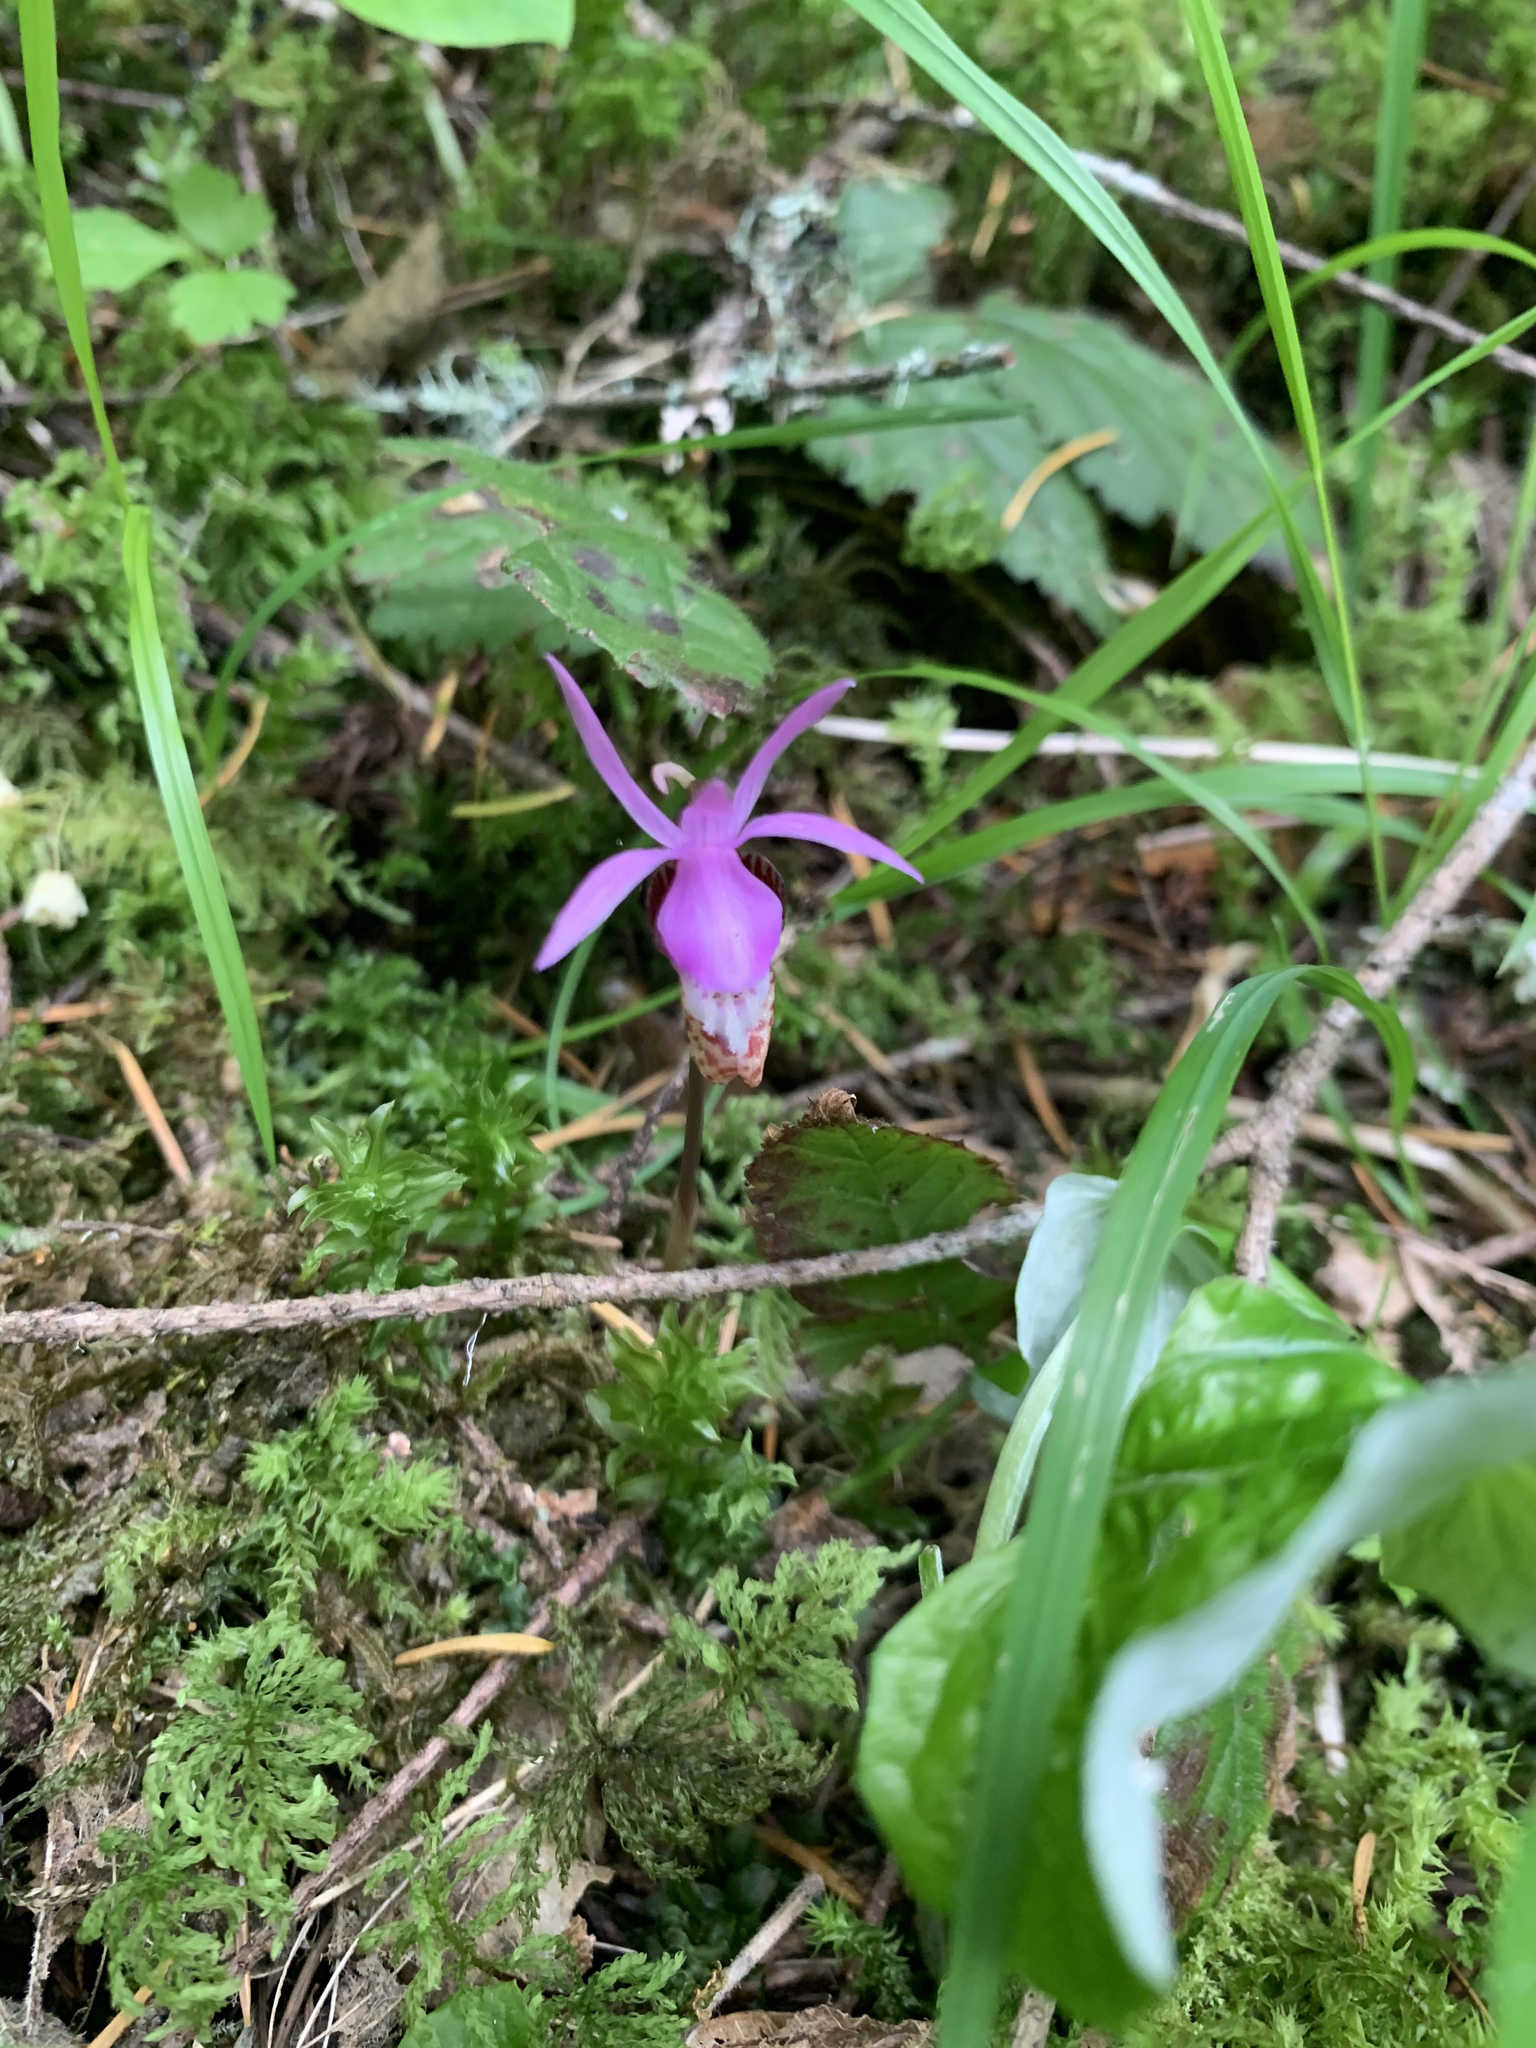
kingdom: Plantae
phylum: Tracheophyta
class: Liliopsida
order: Asparagales
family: Orchidaceae
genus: Calypso
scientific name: Calypso bulbosa
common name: Calypso
